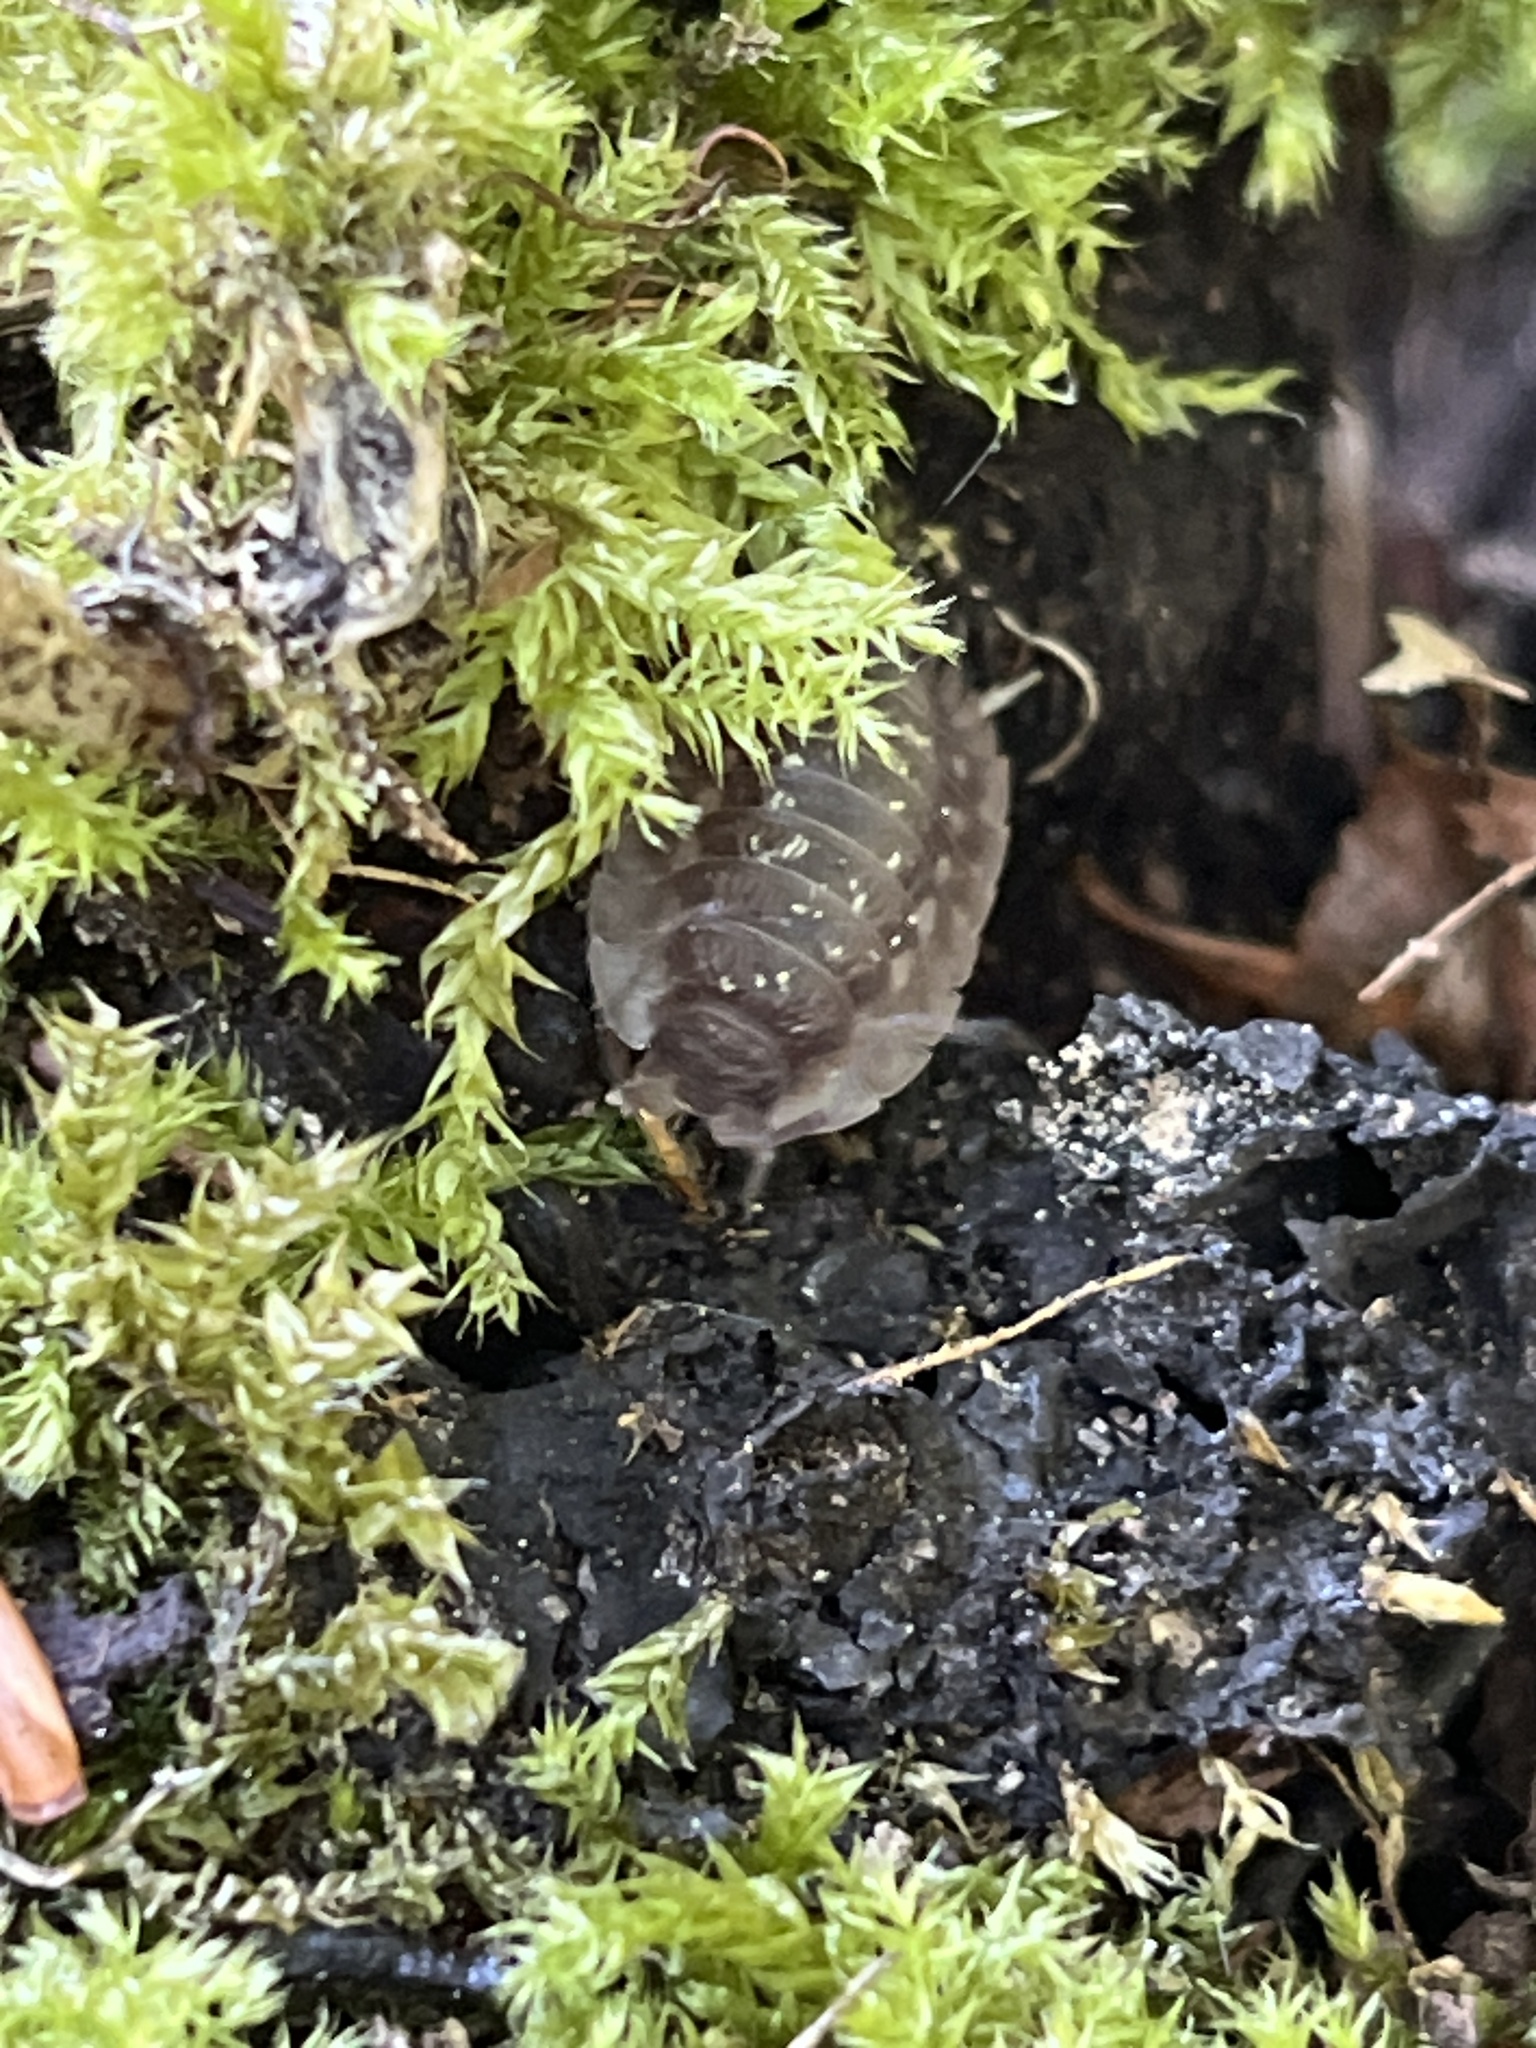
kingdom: Animalia
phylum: Arthropoda
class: Malacostraca
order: Isopoda
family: Oniscidae
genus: Oniscus
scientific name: Oniscus asellus
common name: Common shiny woodlouse
